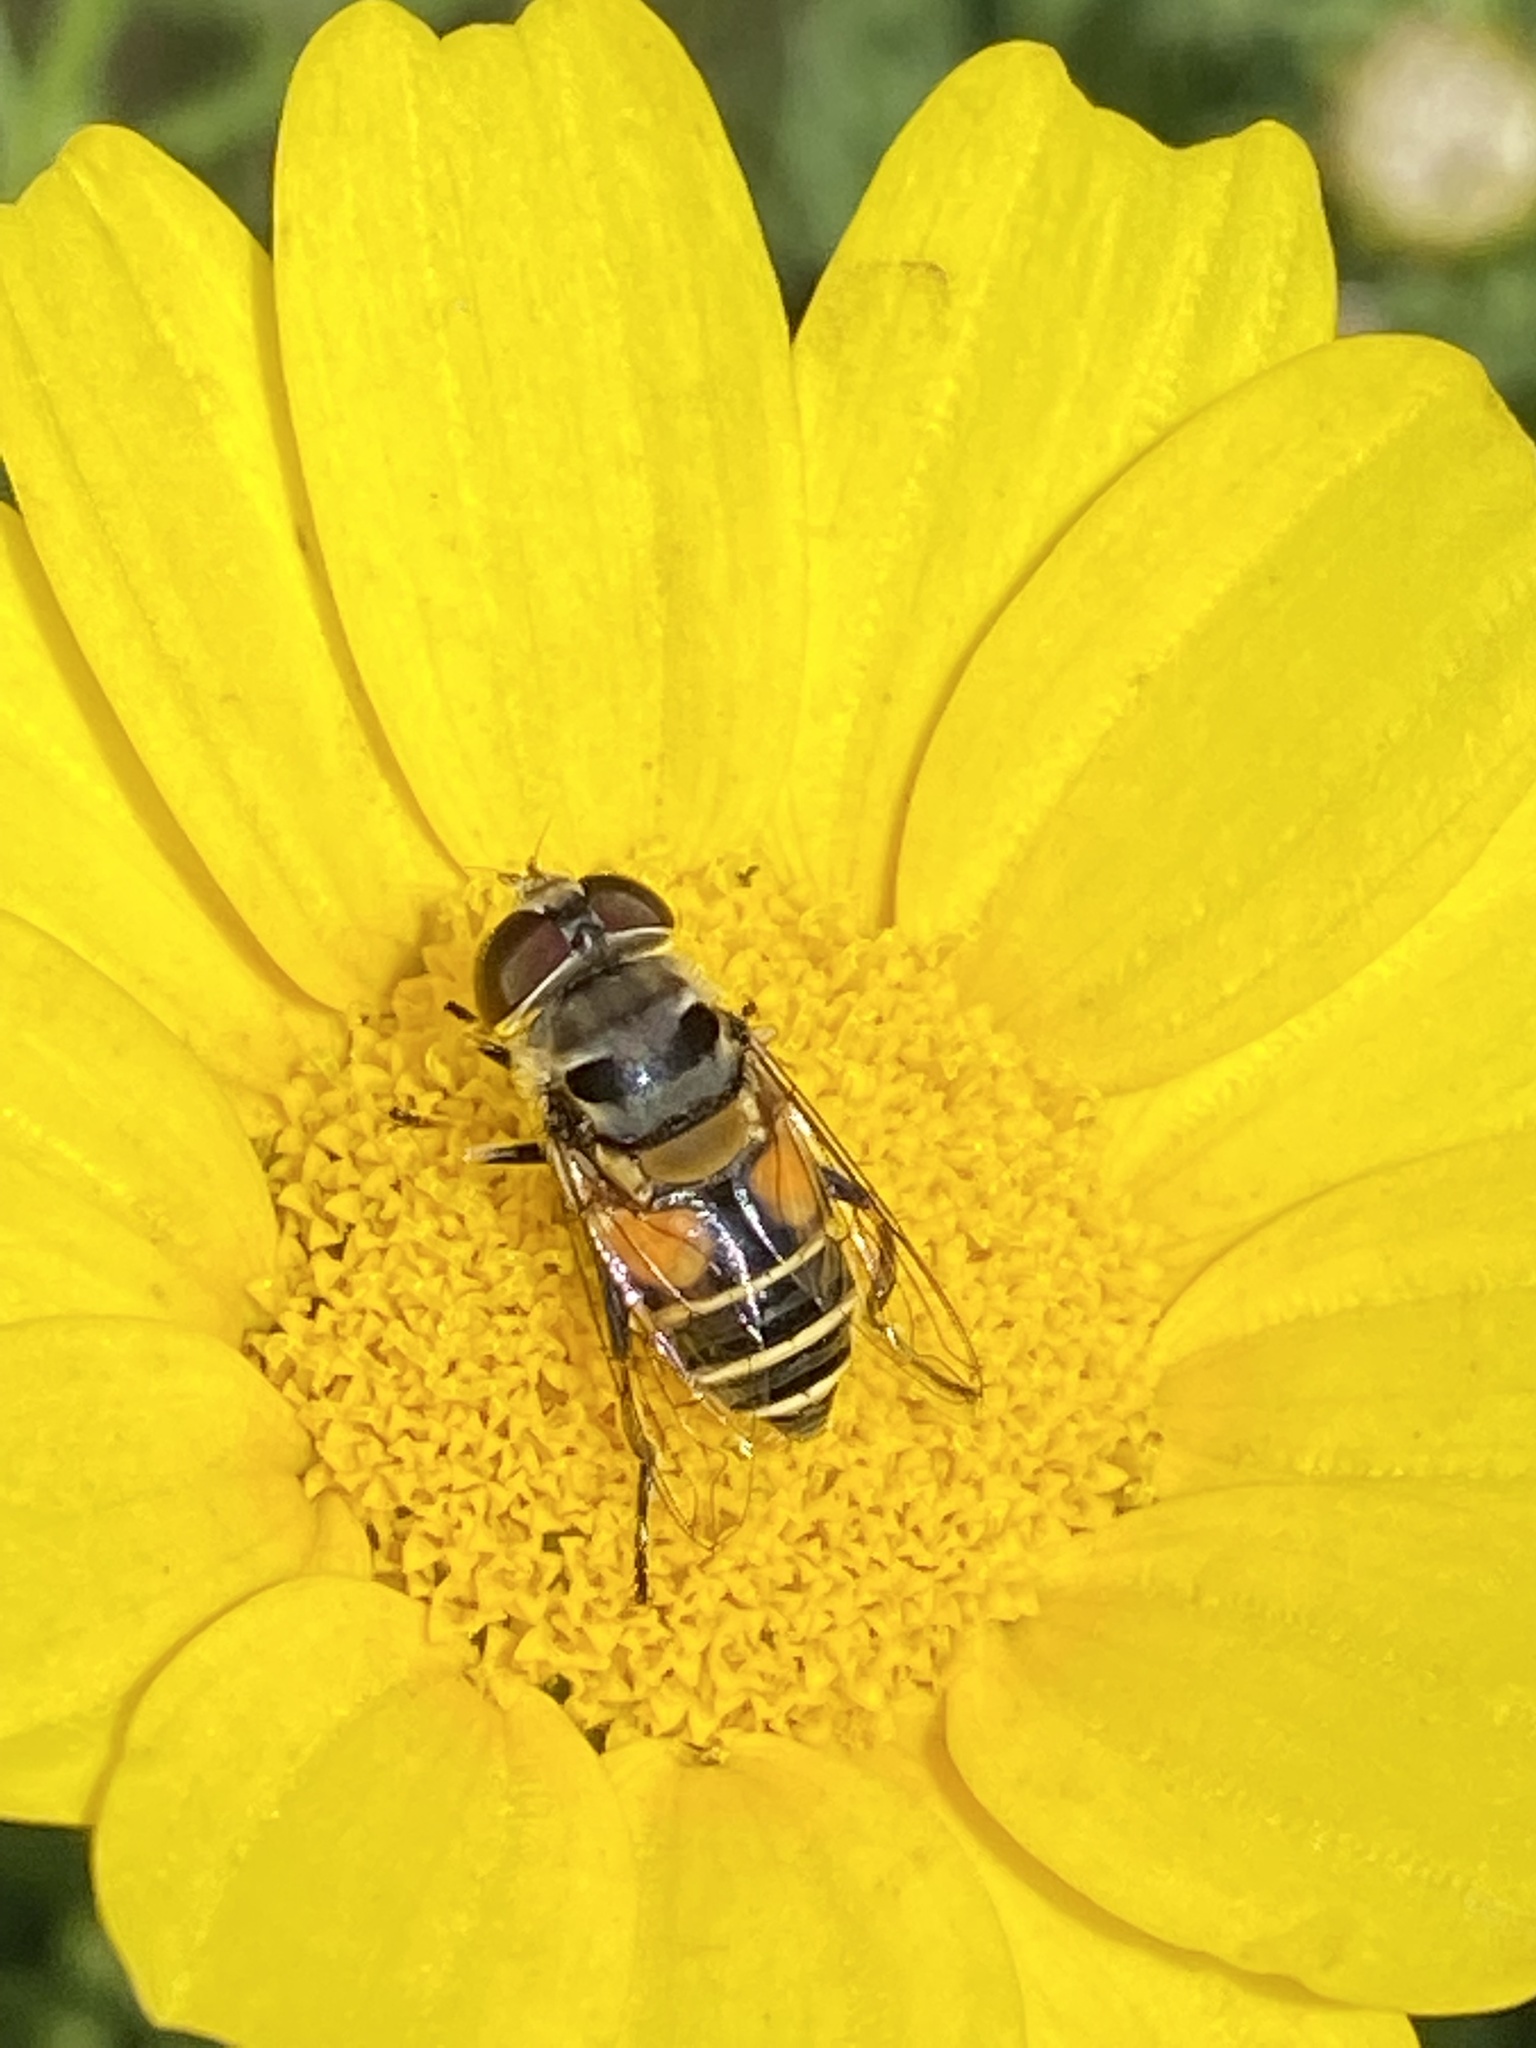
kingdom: Animalia
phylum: Arthropoda
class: Insecta
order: Diptera
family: Syrphidae
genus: Palpada
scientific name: Palpada alhambra
